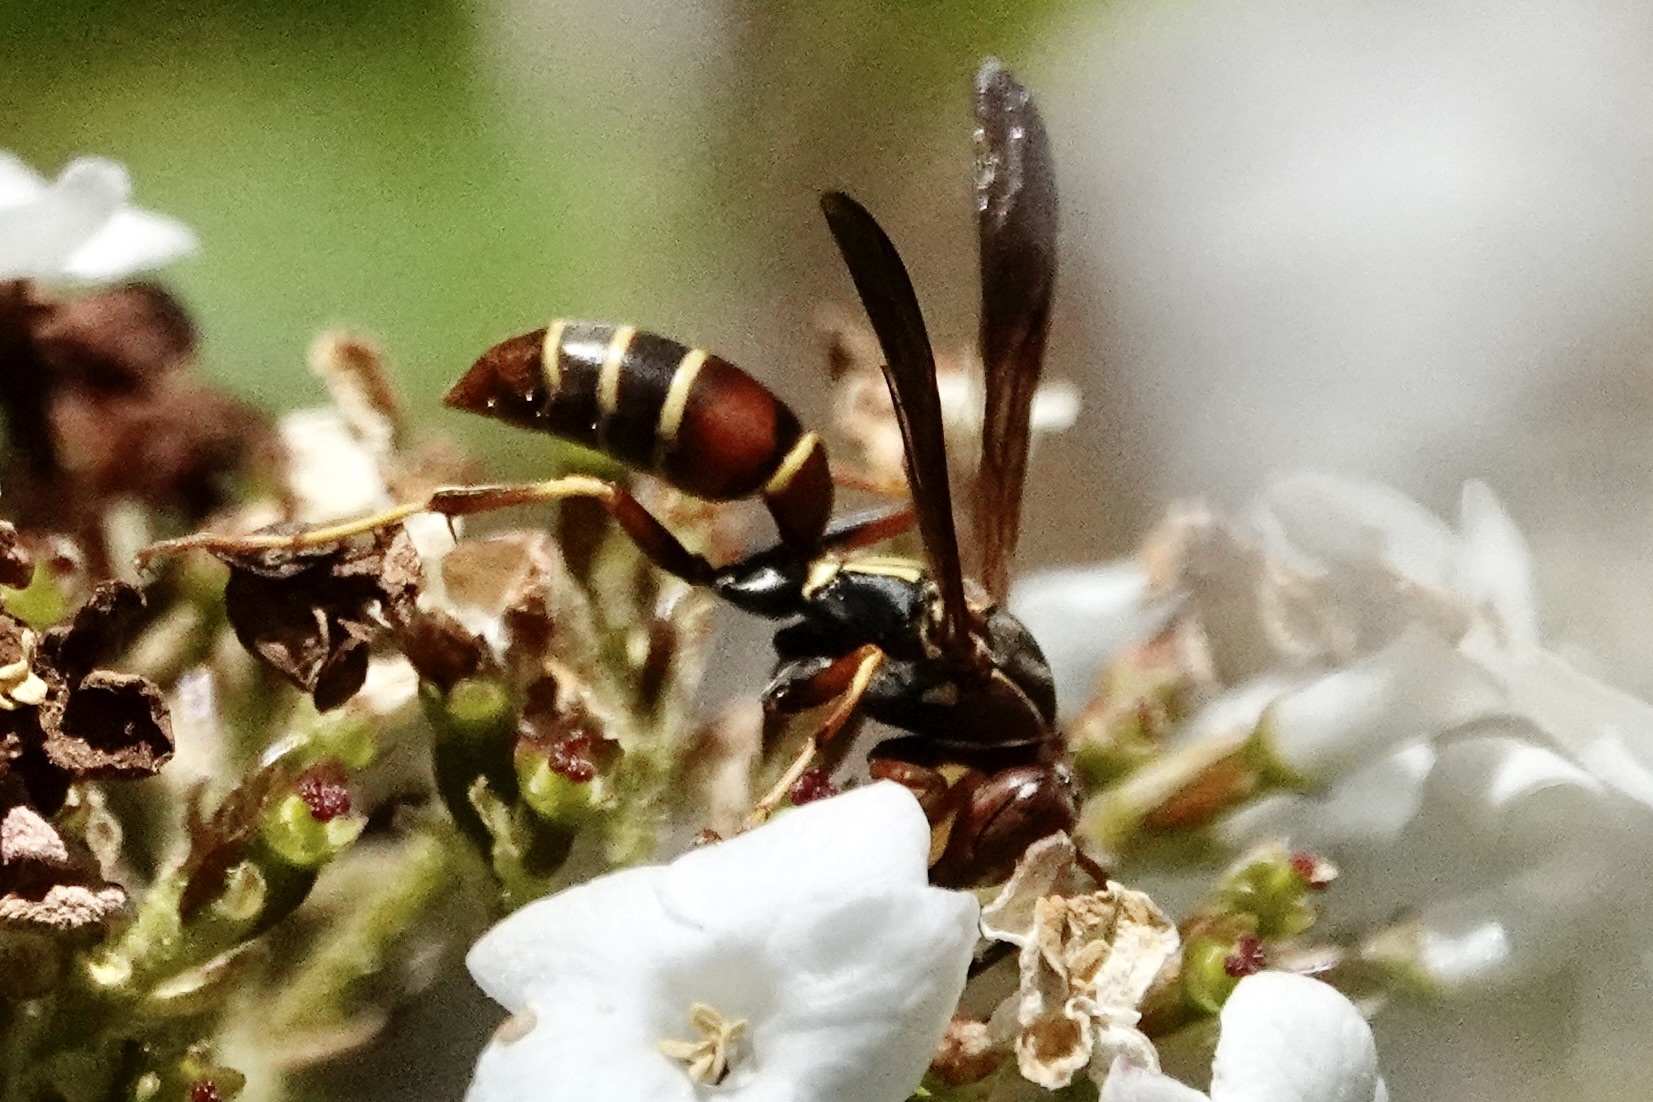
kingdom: Animalia
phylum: Arthropoda
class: Insecta
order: Hymenoptera
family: Eumenidae
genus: Polistes
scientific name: Polistes dorsalis
